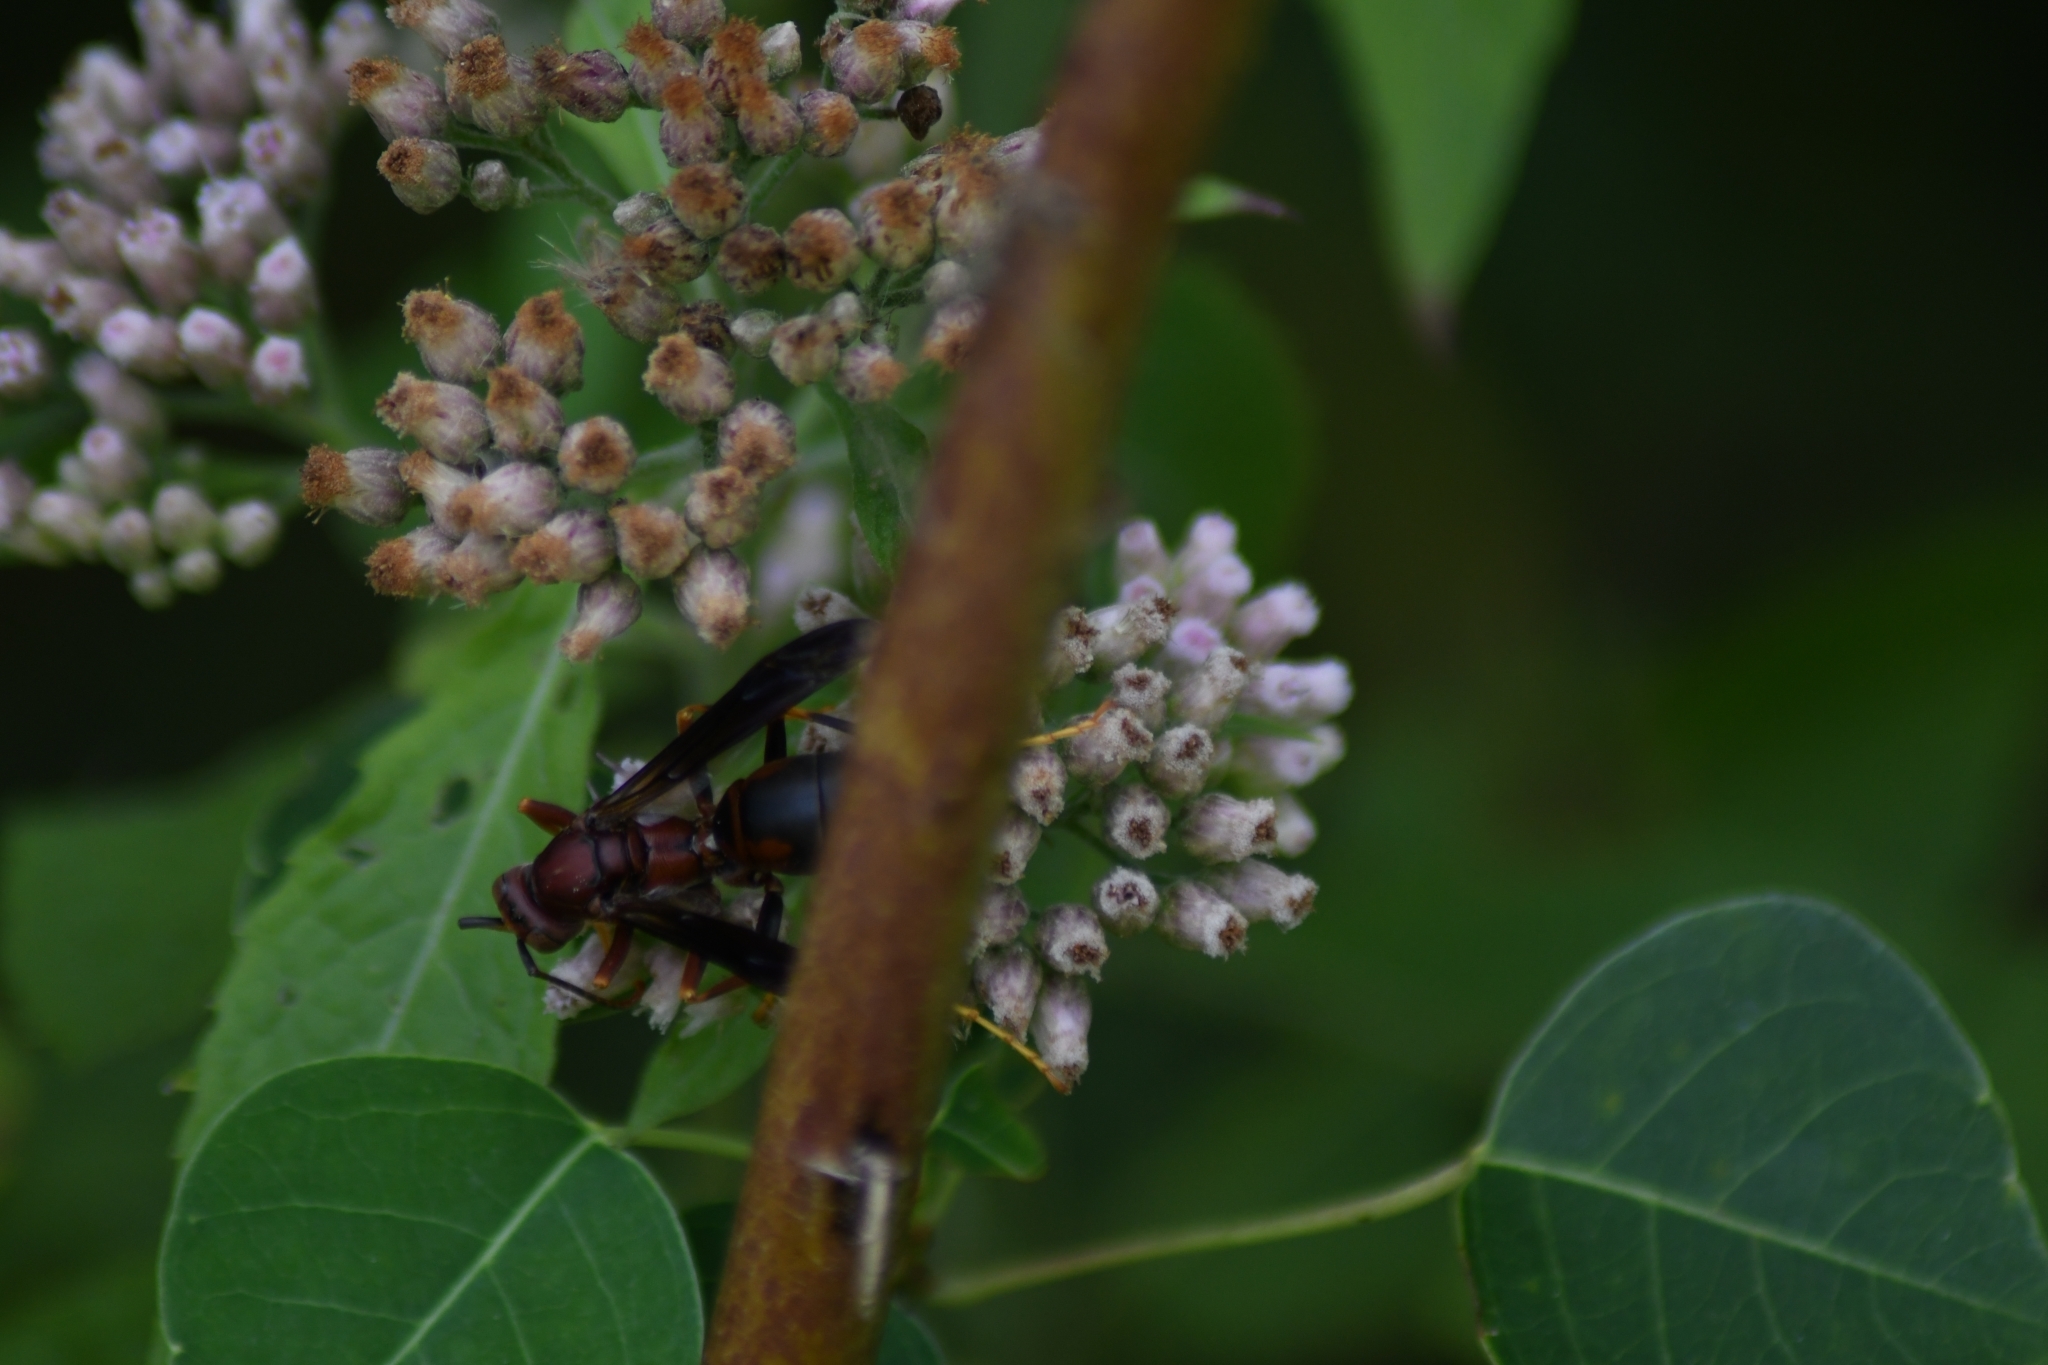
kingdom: Animalia
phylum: Arthropoda
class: Insecta
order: Hymenoptera
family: Eumenidae
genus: Polistes
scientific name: Polistes metricus
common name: Metric paper wasp
